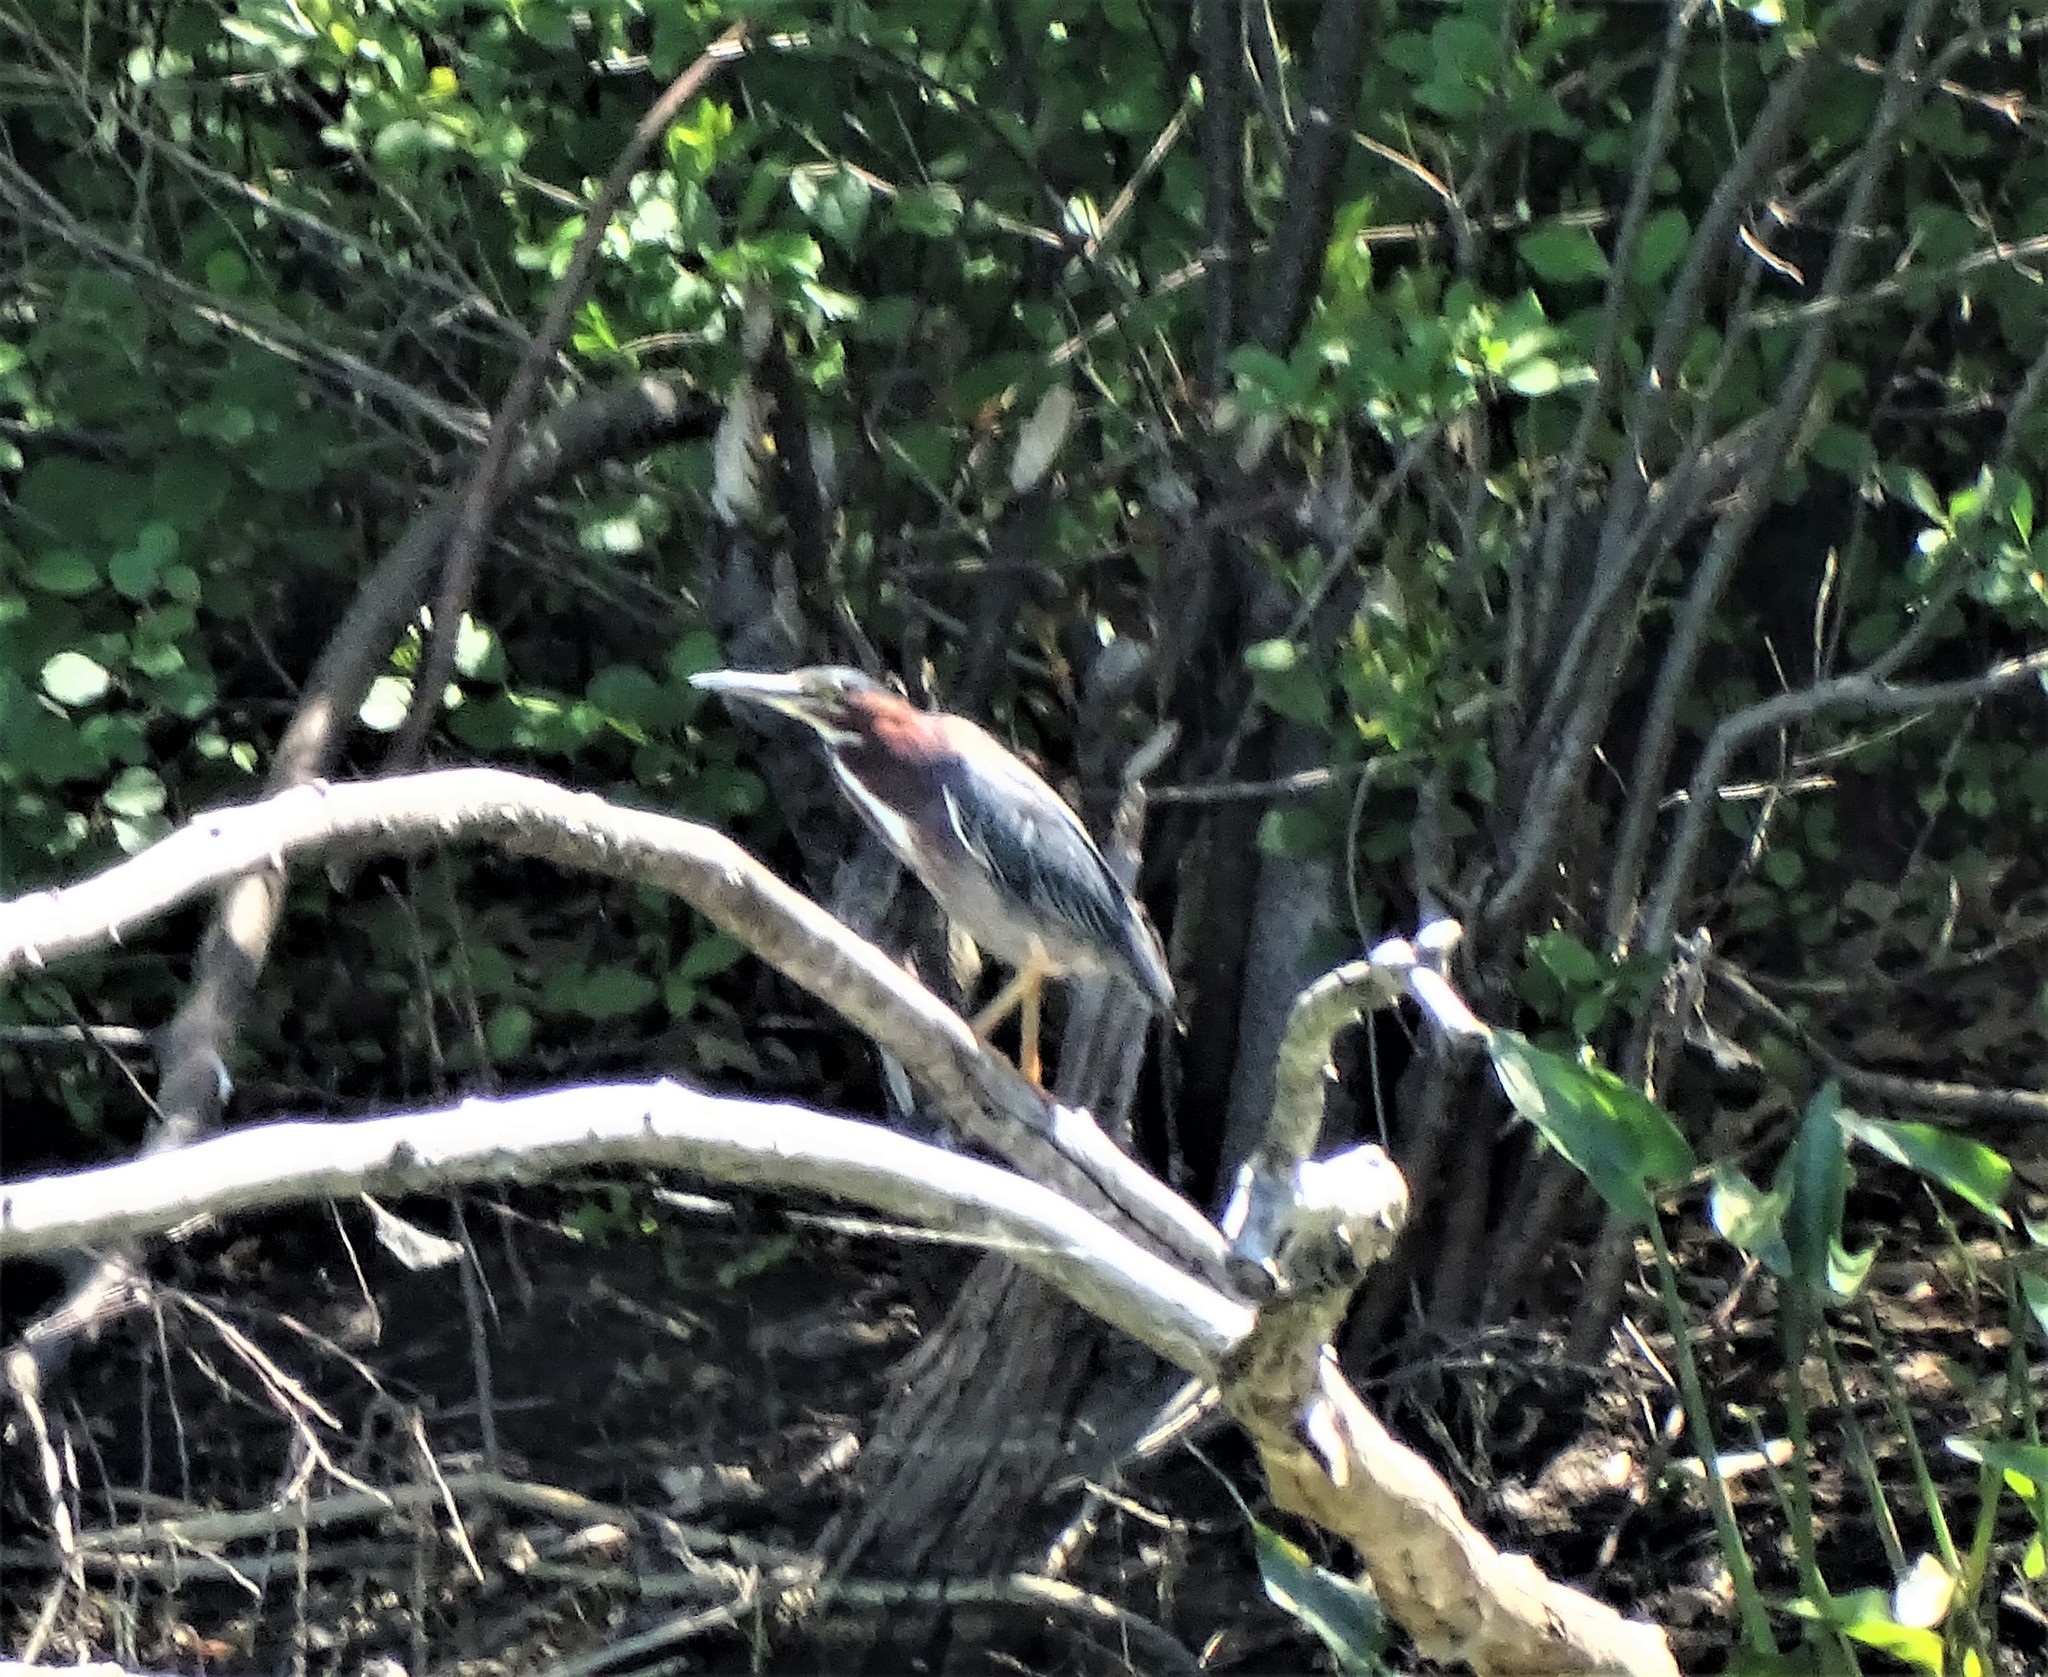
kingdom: Animalia
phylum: Chordata
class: Aves
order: Pelecaniformes
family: Ardeidae
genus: Butorides
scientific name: Butorides virescens
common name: Green heron
